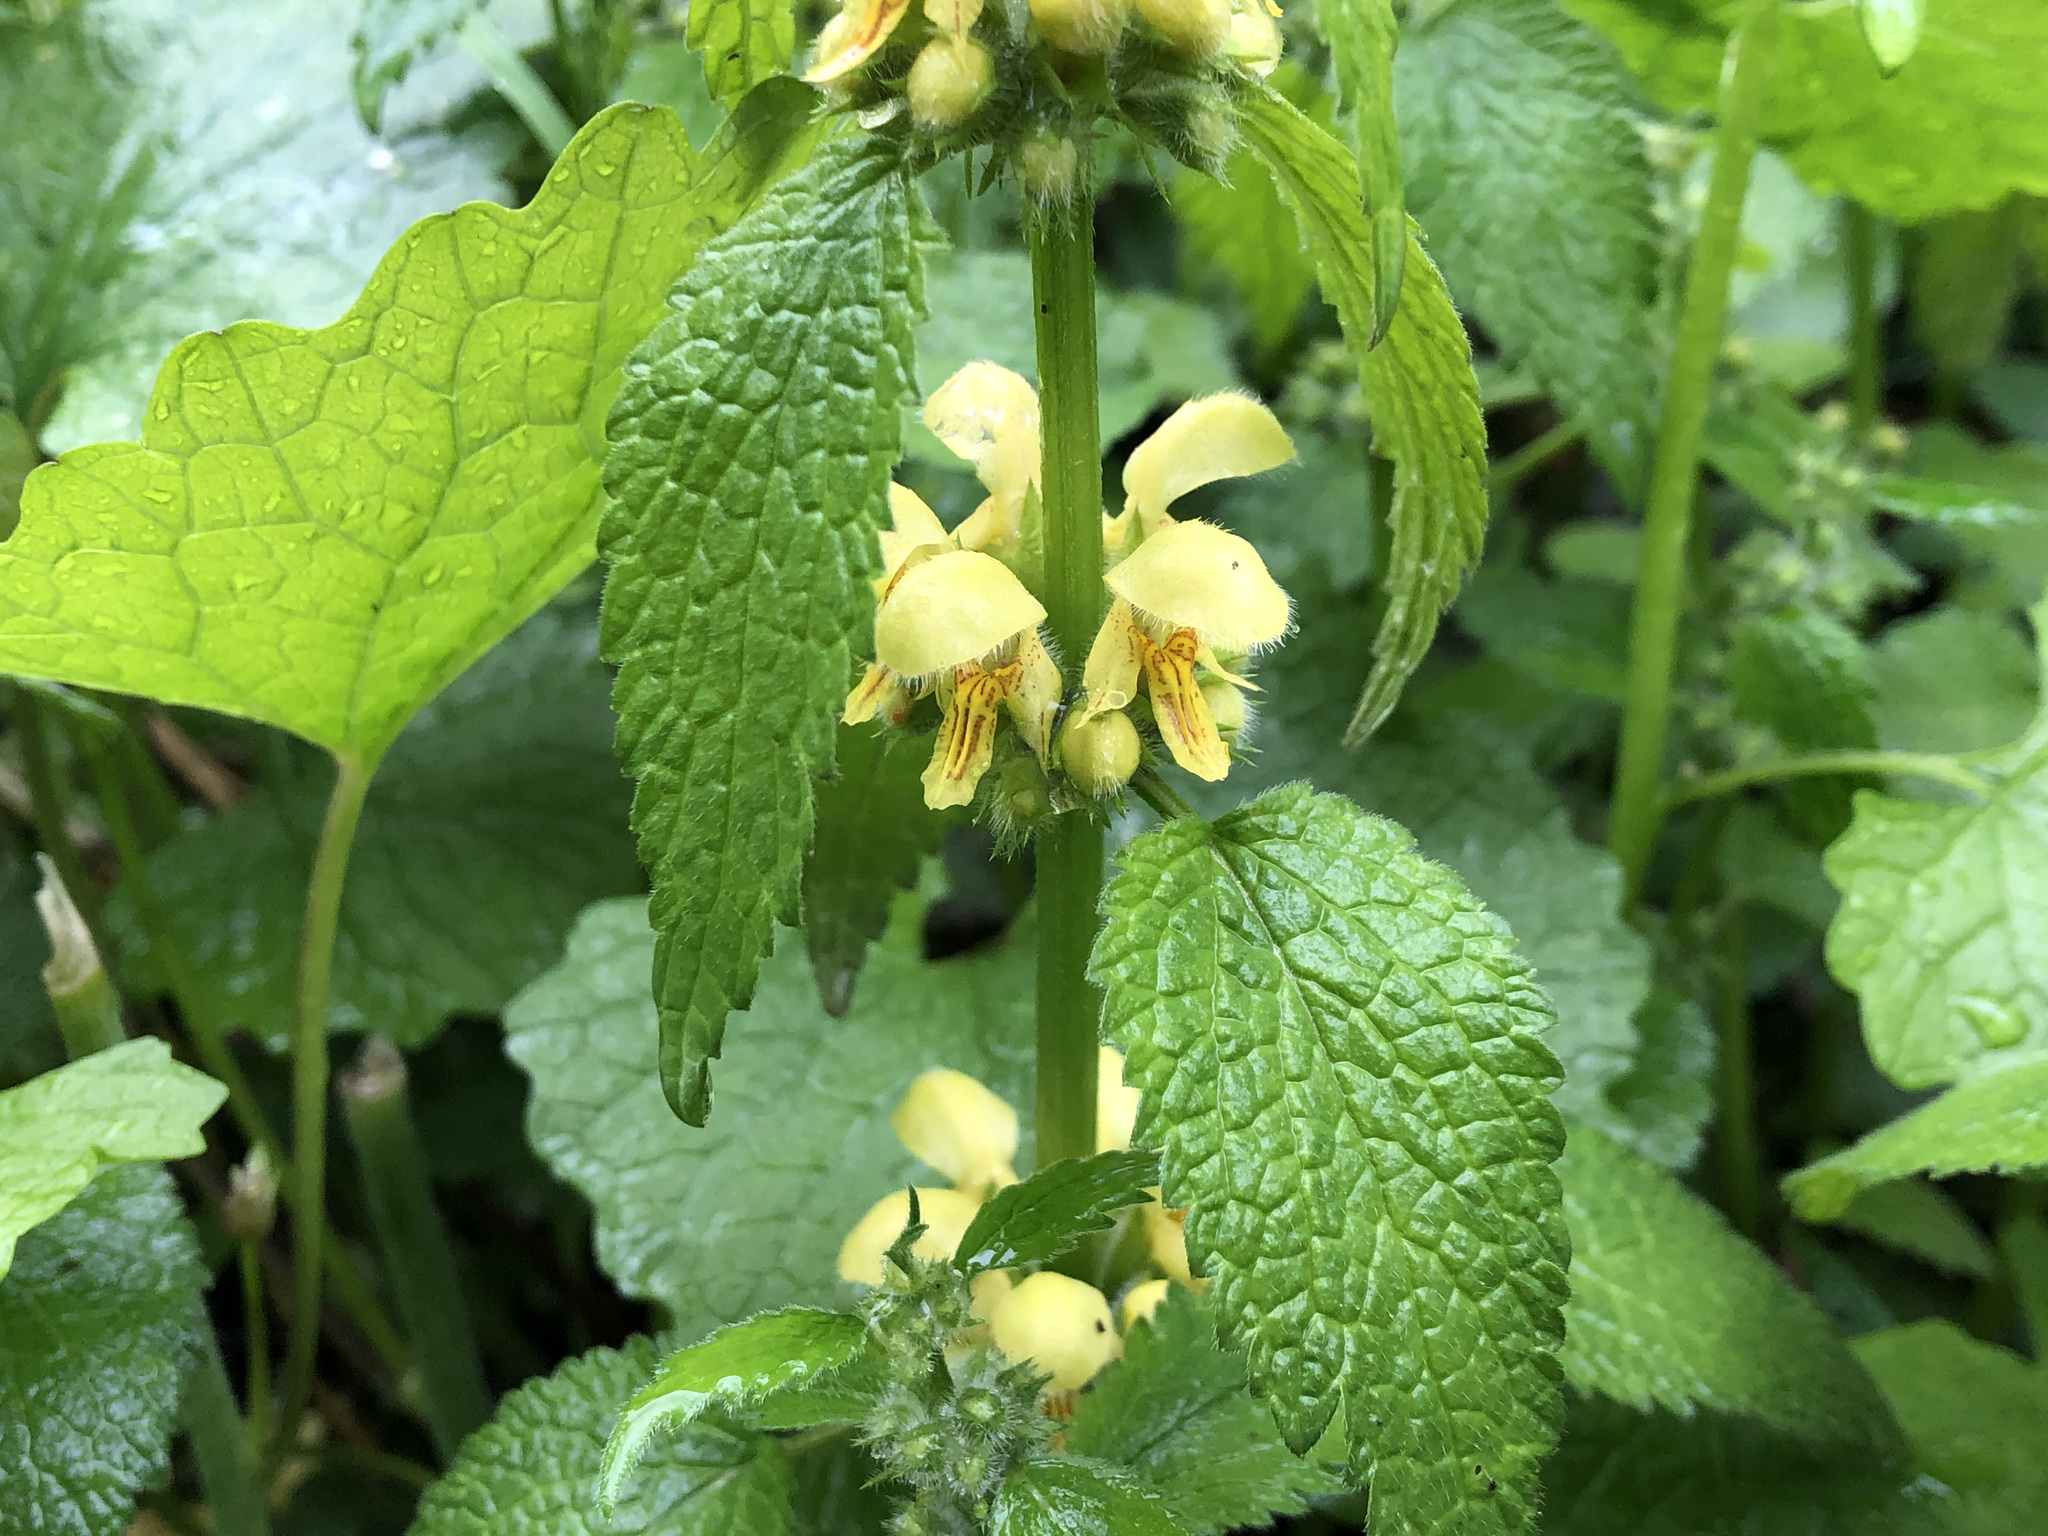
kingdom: Plantae
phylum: Tracheophyta
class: Magnoliopsida
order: Lamiales
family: Lamiaceae
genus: Lamium
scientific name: Lamium galeobdolon
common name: Yellow archangel
